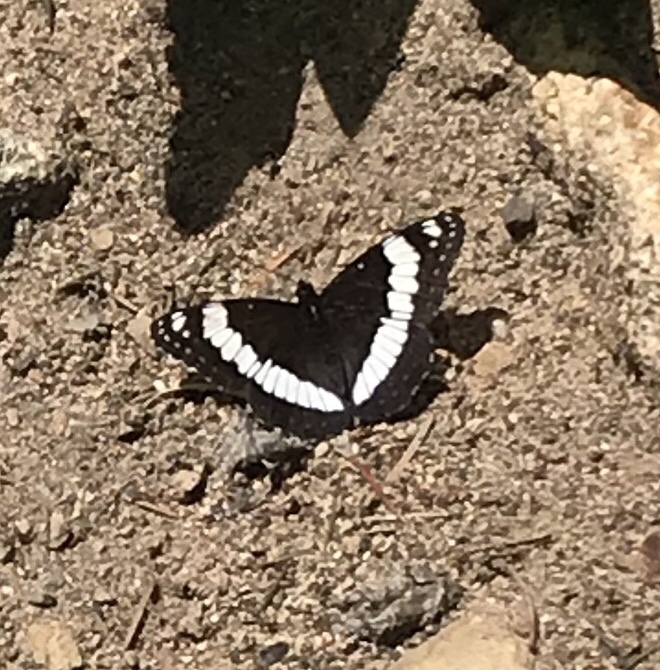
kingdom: Animalia
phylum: Arthropoda
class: Insecta
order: Lepidoptera
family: Nymphalidae
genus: Limenitis
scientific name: Limenitis weidemeyerii
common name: Weidemeyer's admiral
